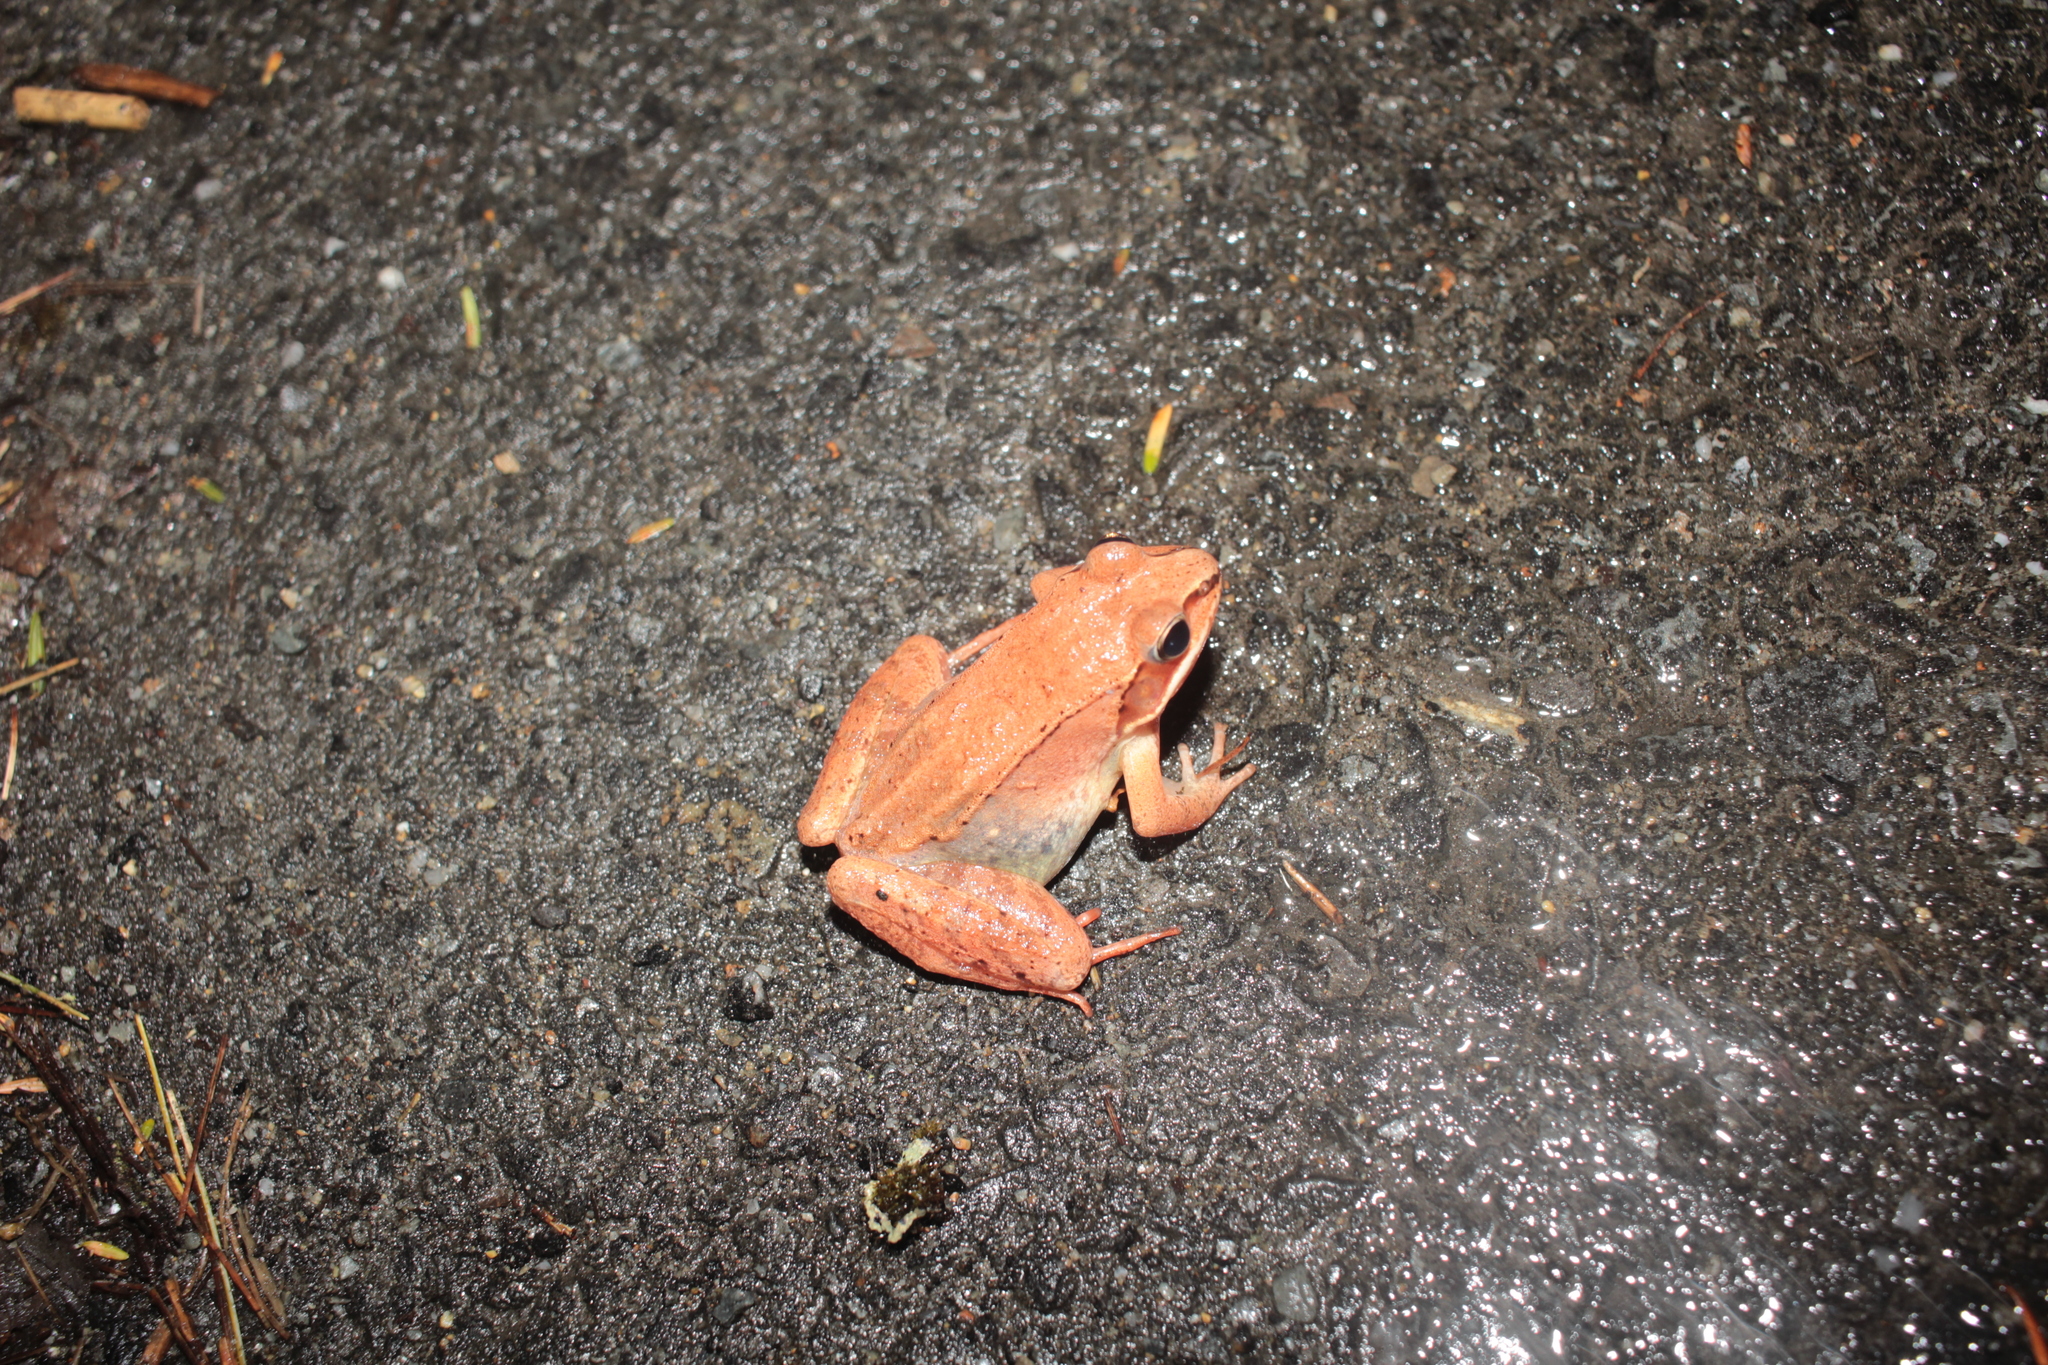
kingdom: Animalia
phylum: Chordata
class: Amphibia
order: Anura
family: Ranidae
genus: Lithobates
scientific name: Lithobates sylvaticus
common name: Wood frog
